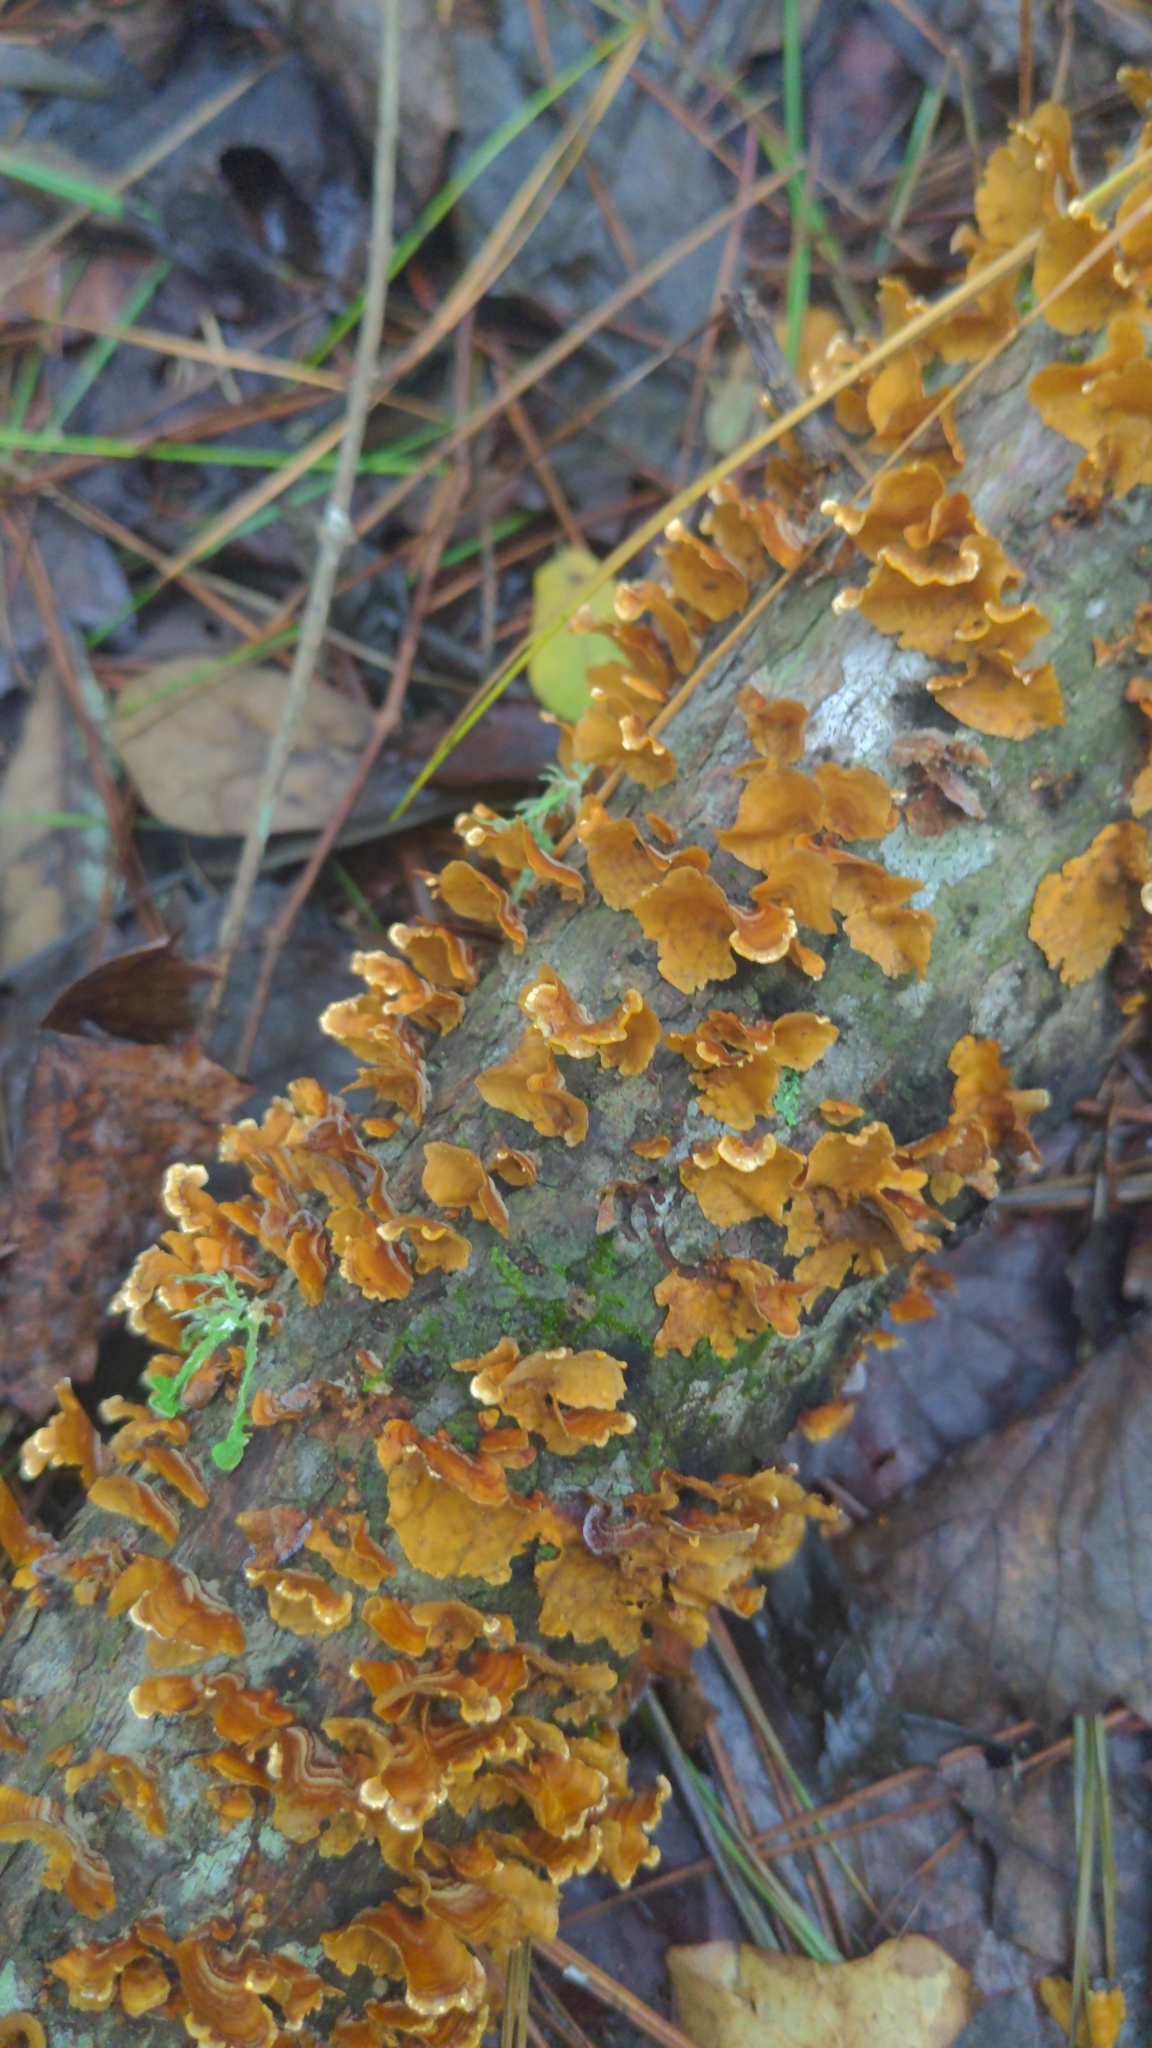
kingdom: Fungi
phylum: Basidiomycota
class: Agaricomycetes
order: Russulales
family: Stereaceae
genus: Stereum
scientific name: Stereum complicatum
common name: Crowded parchment
